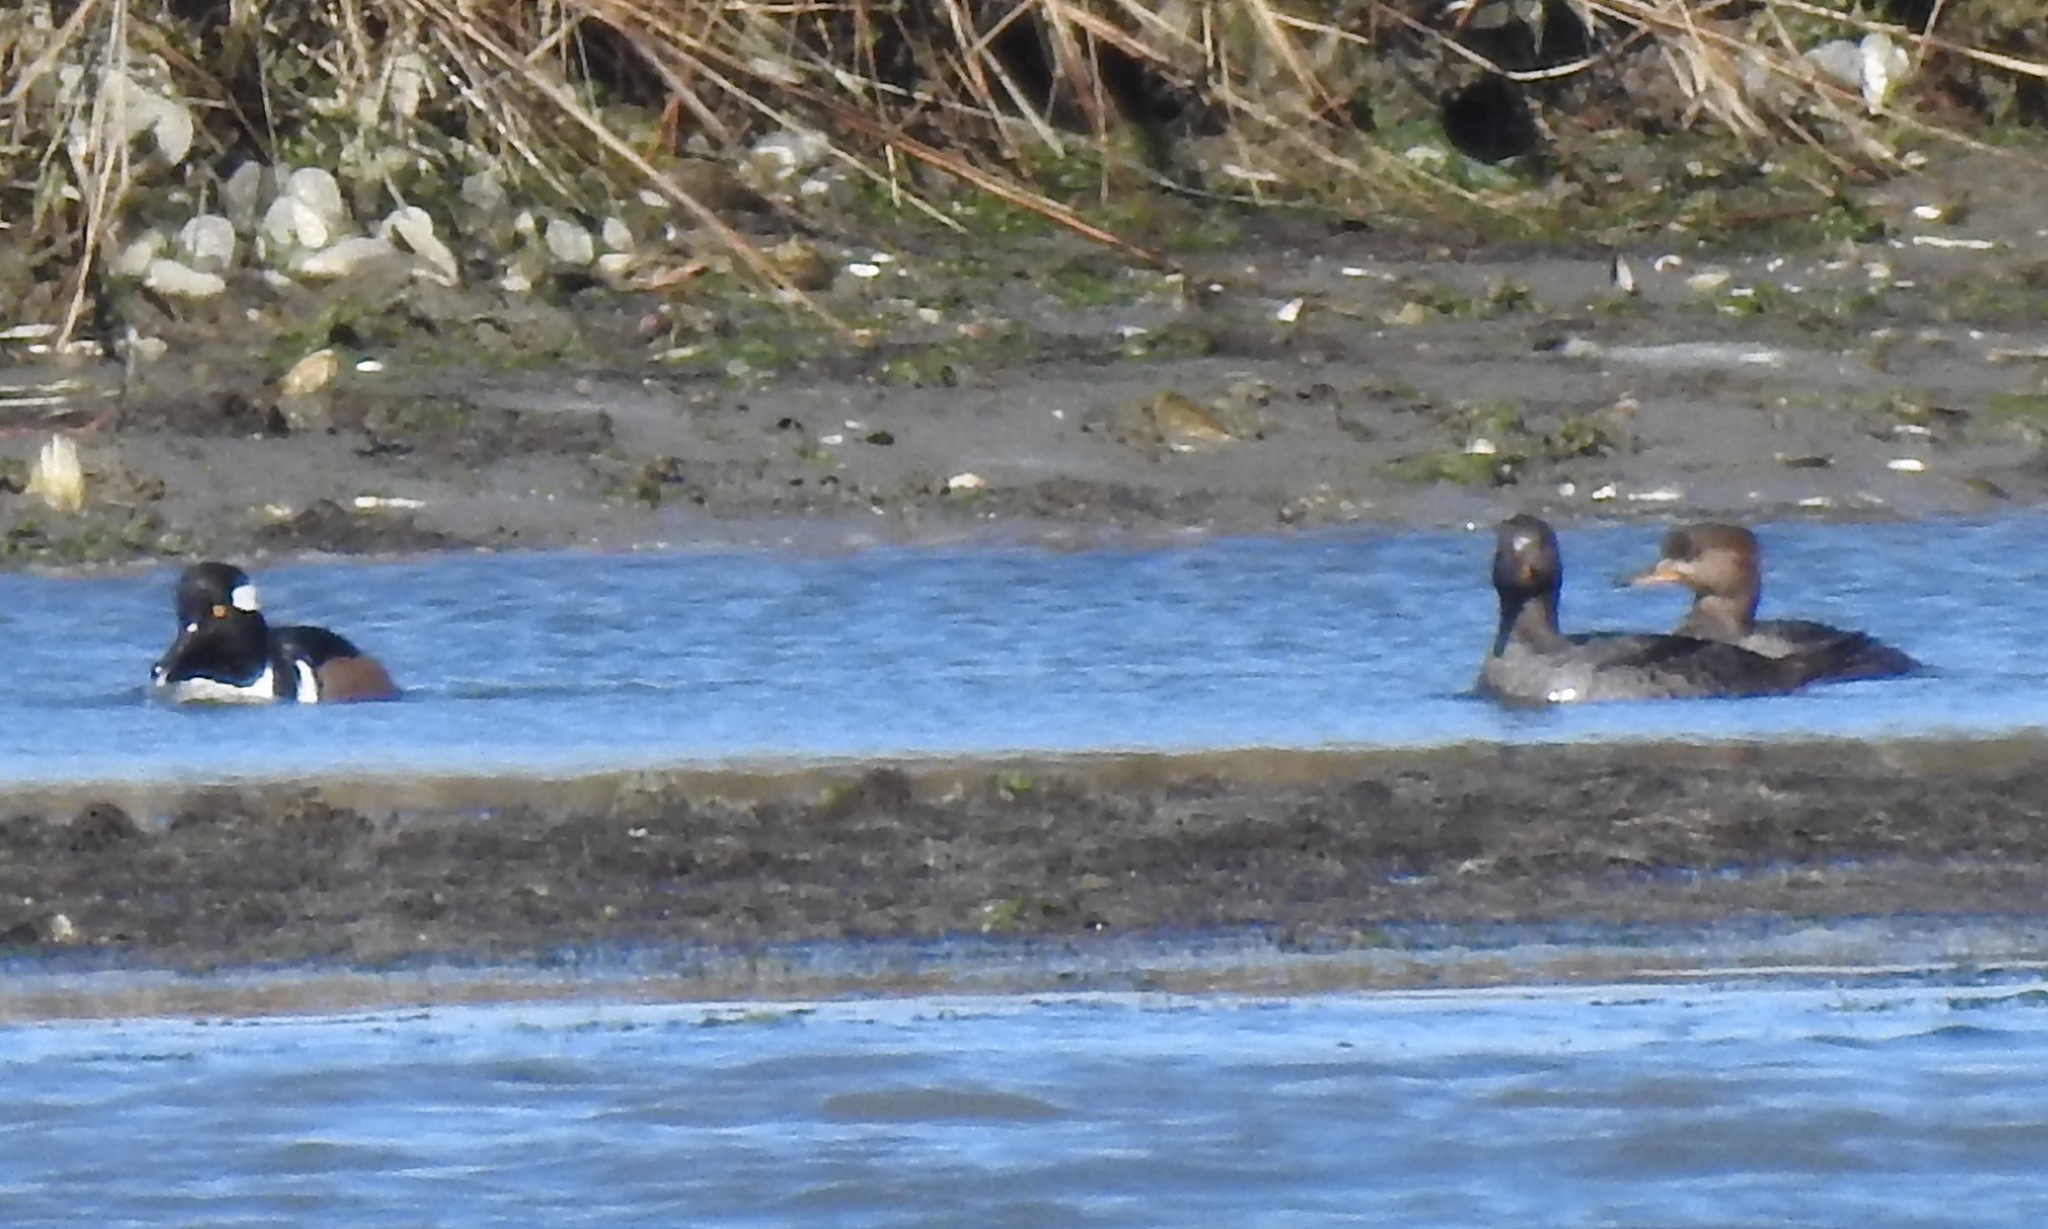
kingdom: Animalia
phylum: Chordata
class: Aves
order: Anseriformes
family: Anatidae
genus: Lophodytes
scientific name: Lophodytes cucullatus
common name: Hooded merganser
